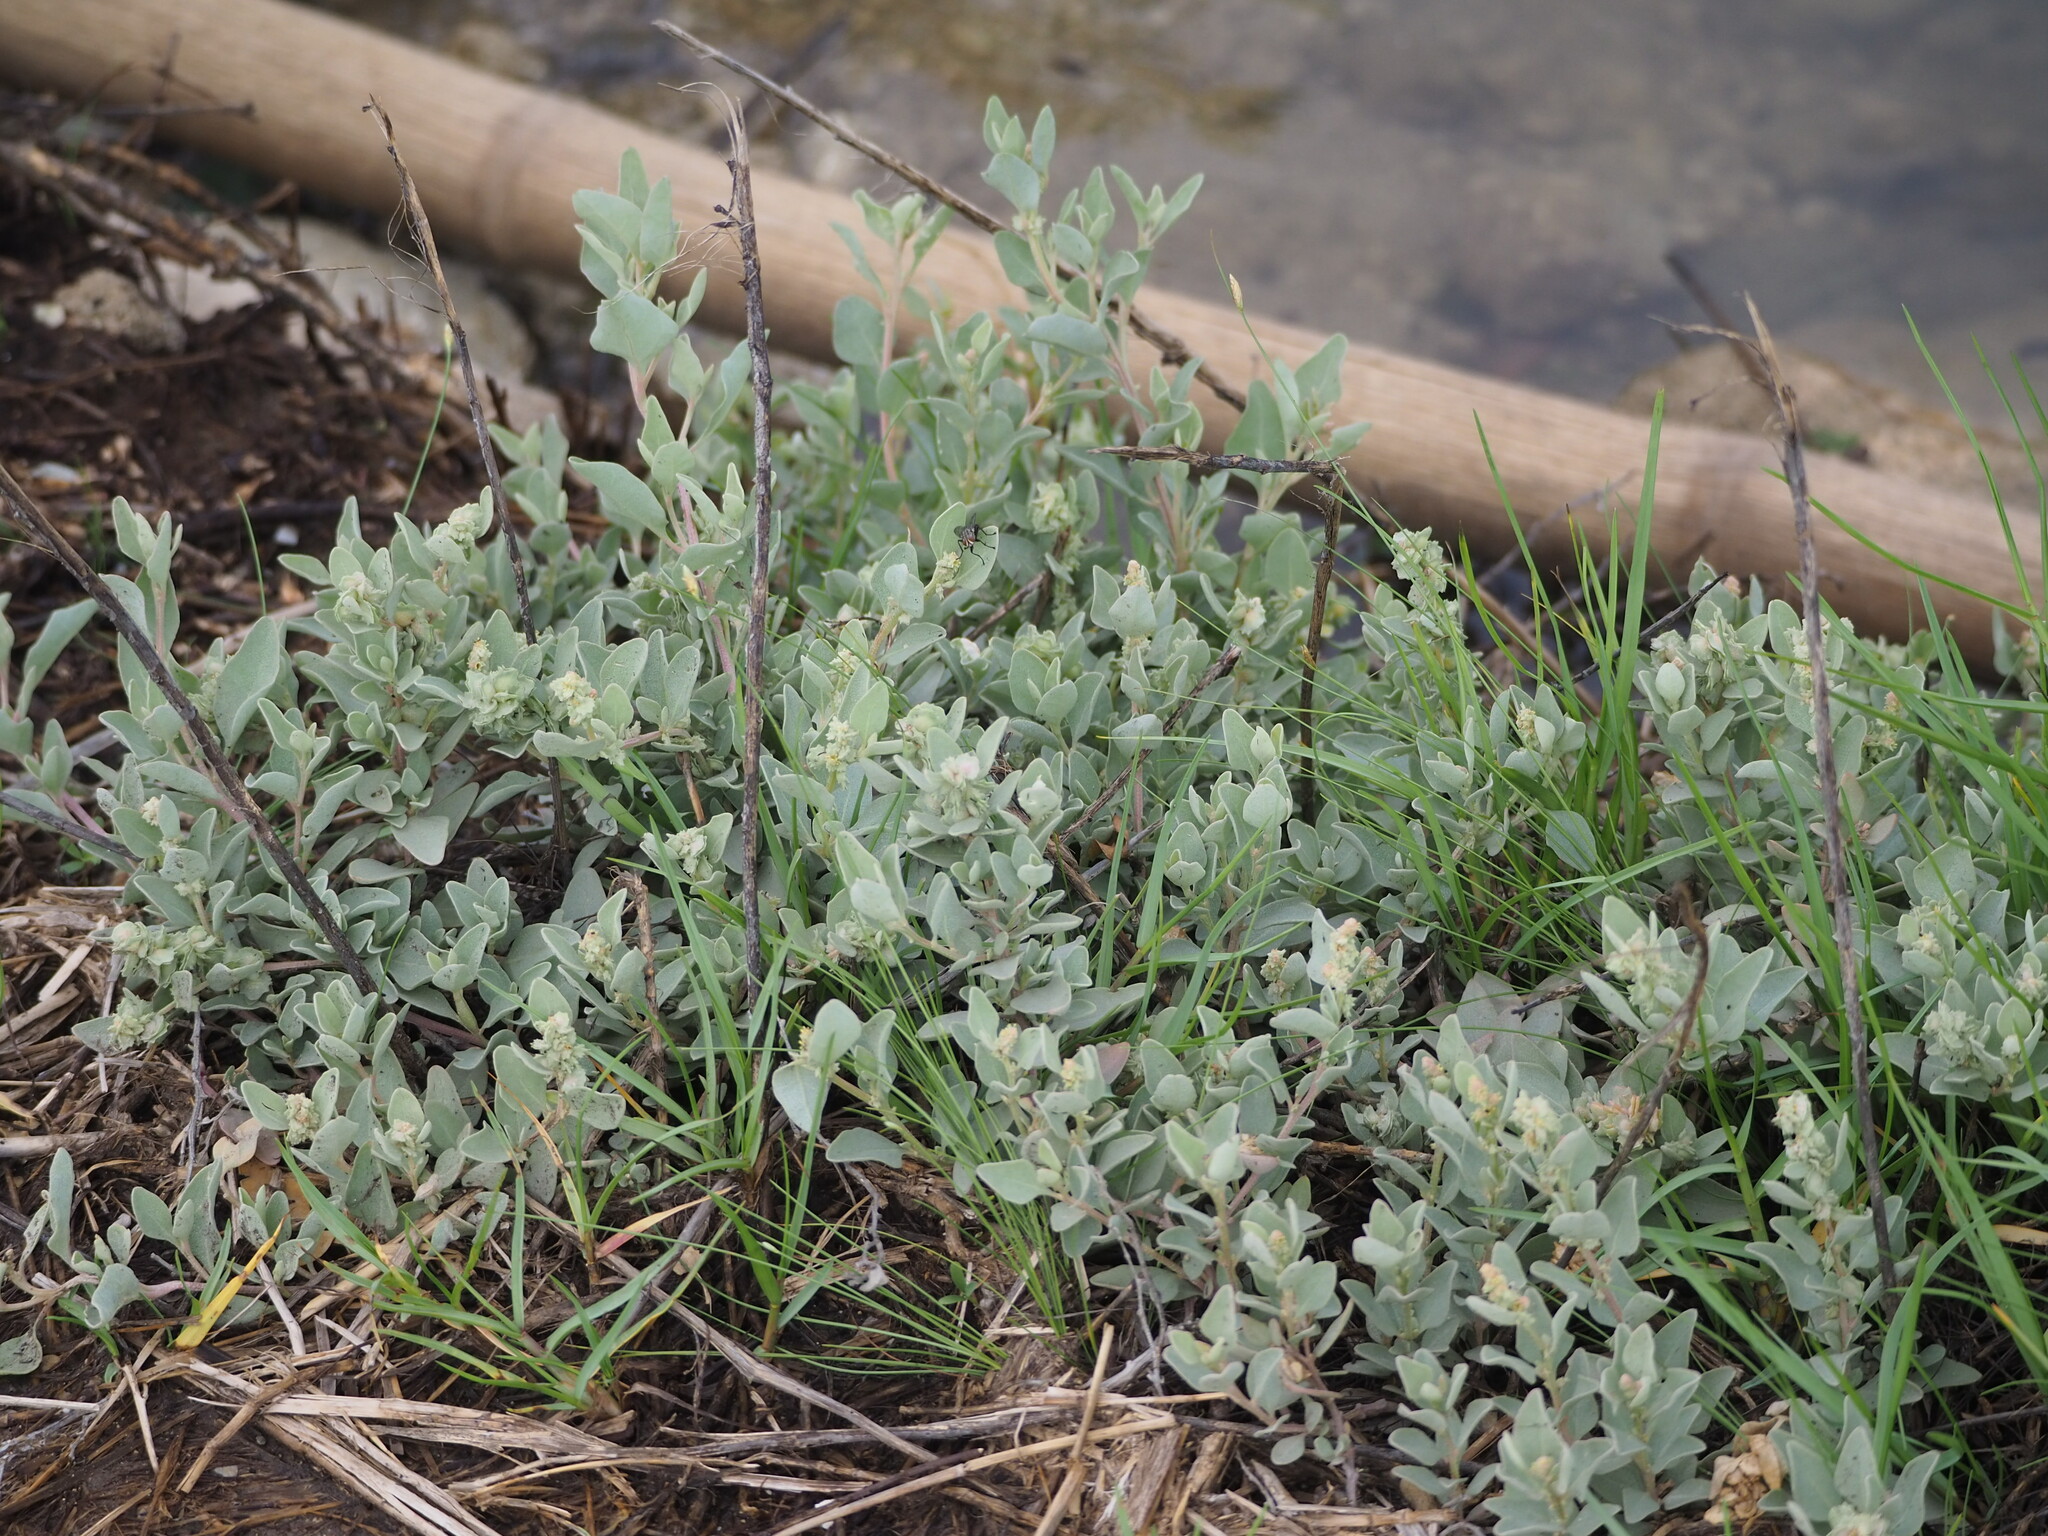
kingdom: Plantae
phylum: Tracheophyta
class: Magnoliopsida
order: Caryophyllales
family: Amaranthaceae
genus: Atriplex
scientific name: Atriplex maximowicziana
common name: Maximowicz's saltbush
